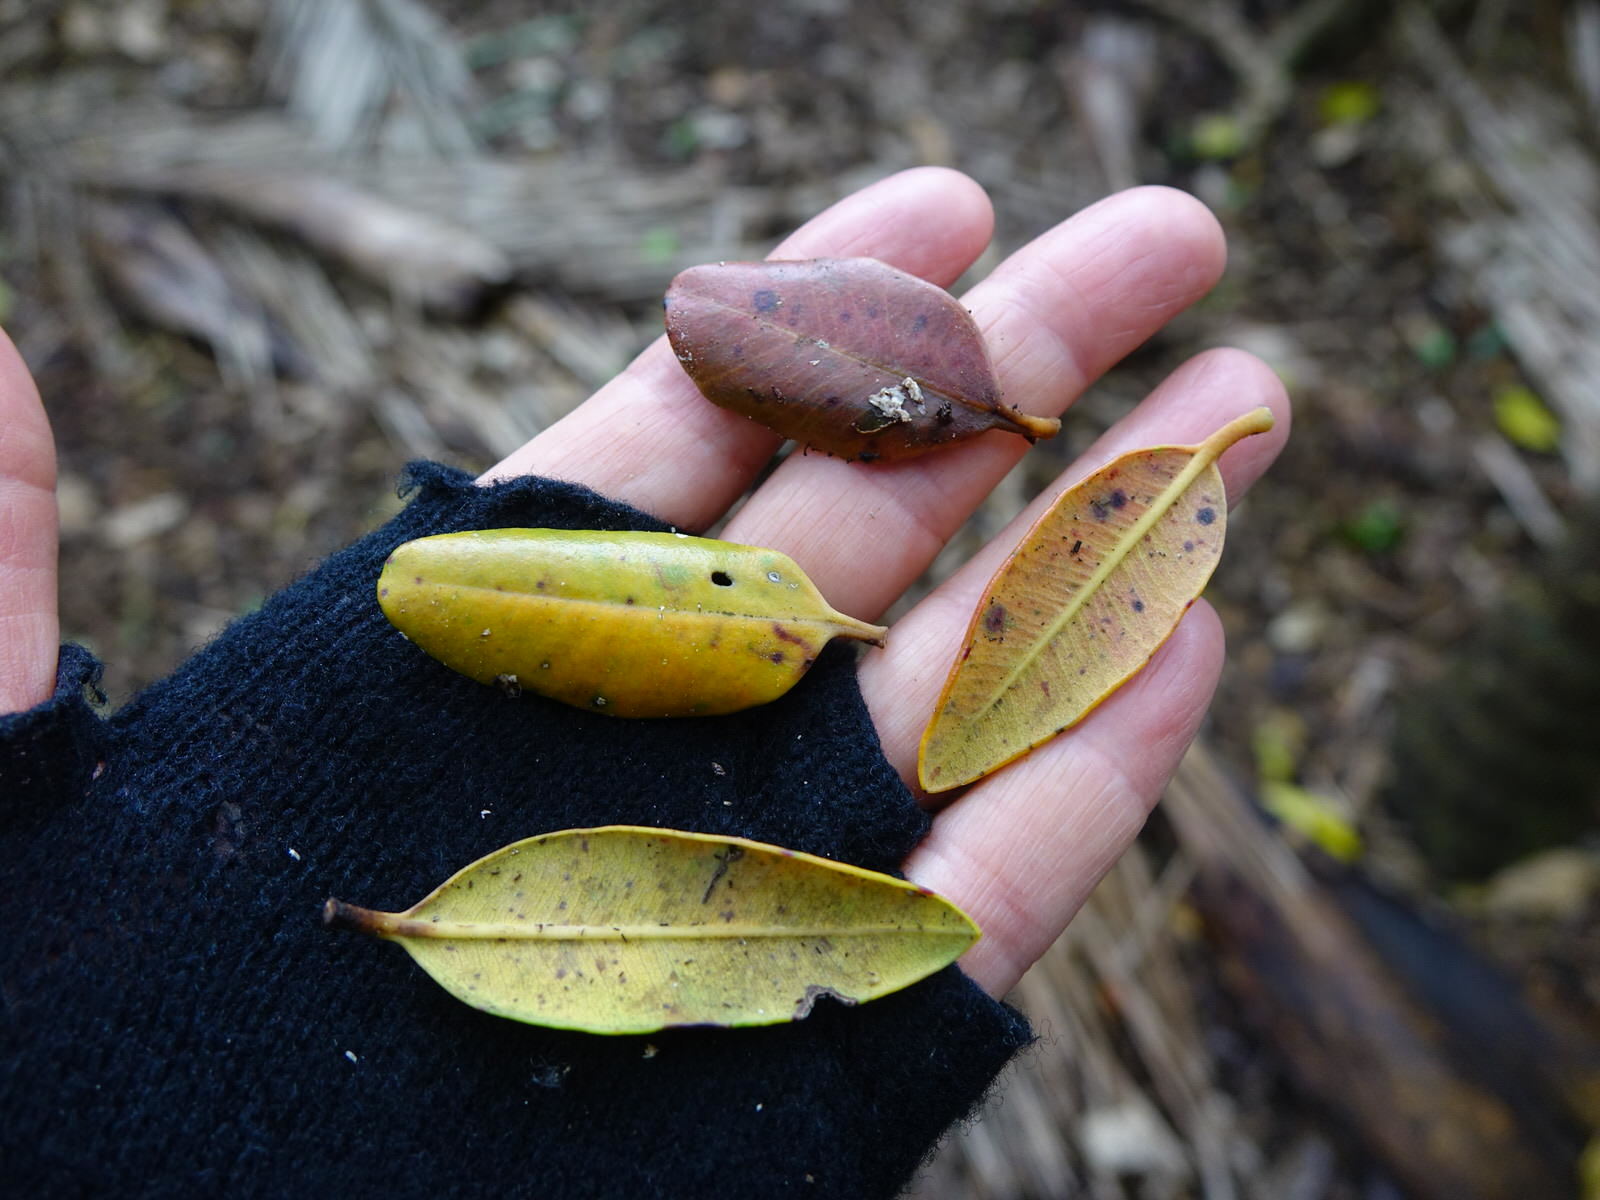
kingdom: Plantae
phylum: Tracheophyta
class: Magnoliopsida
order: Myrtales
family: Myrtaceae
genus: Metrosideros
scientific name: Metrosideros excelsa
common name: New zealand christmastree
